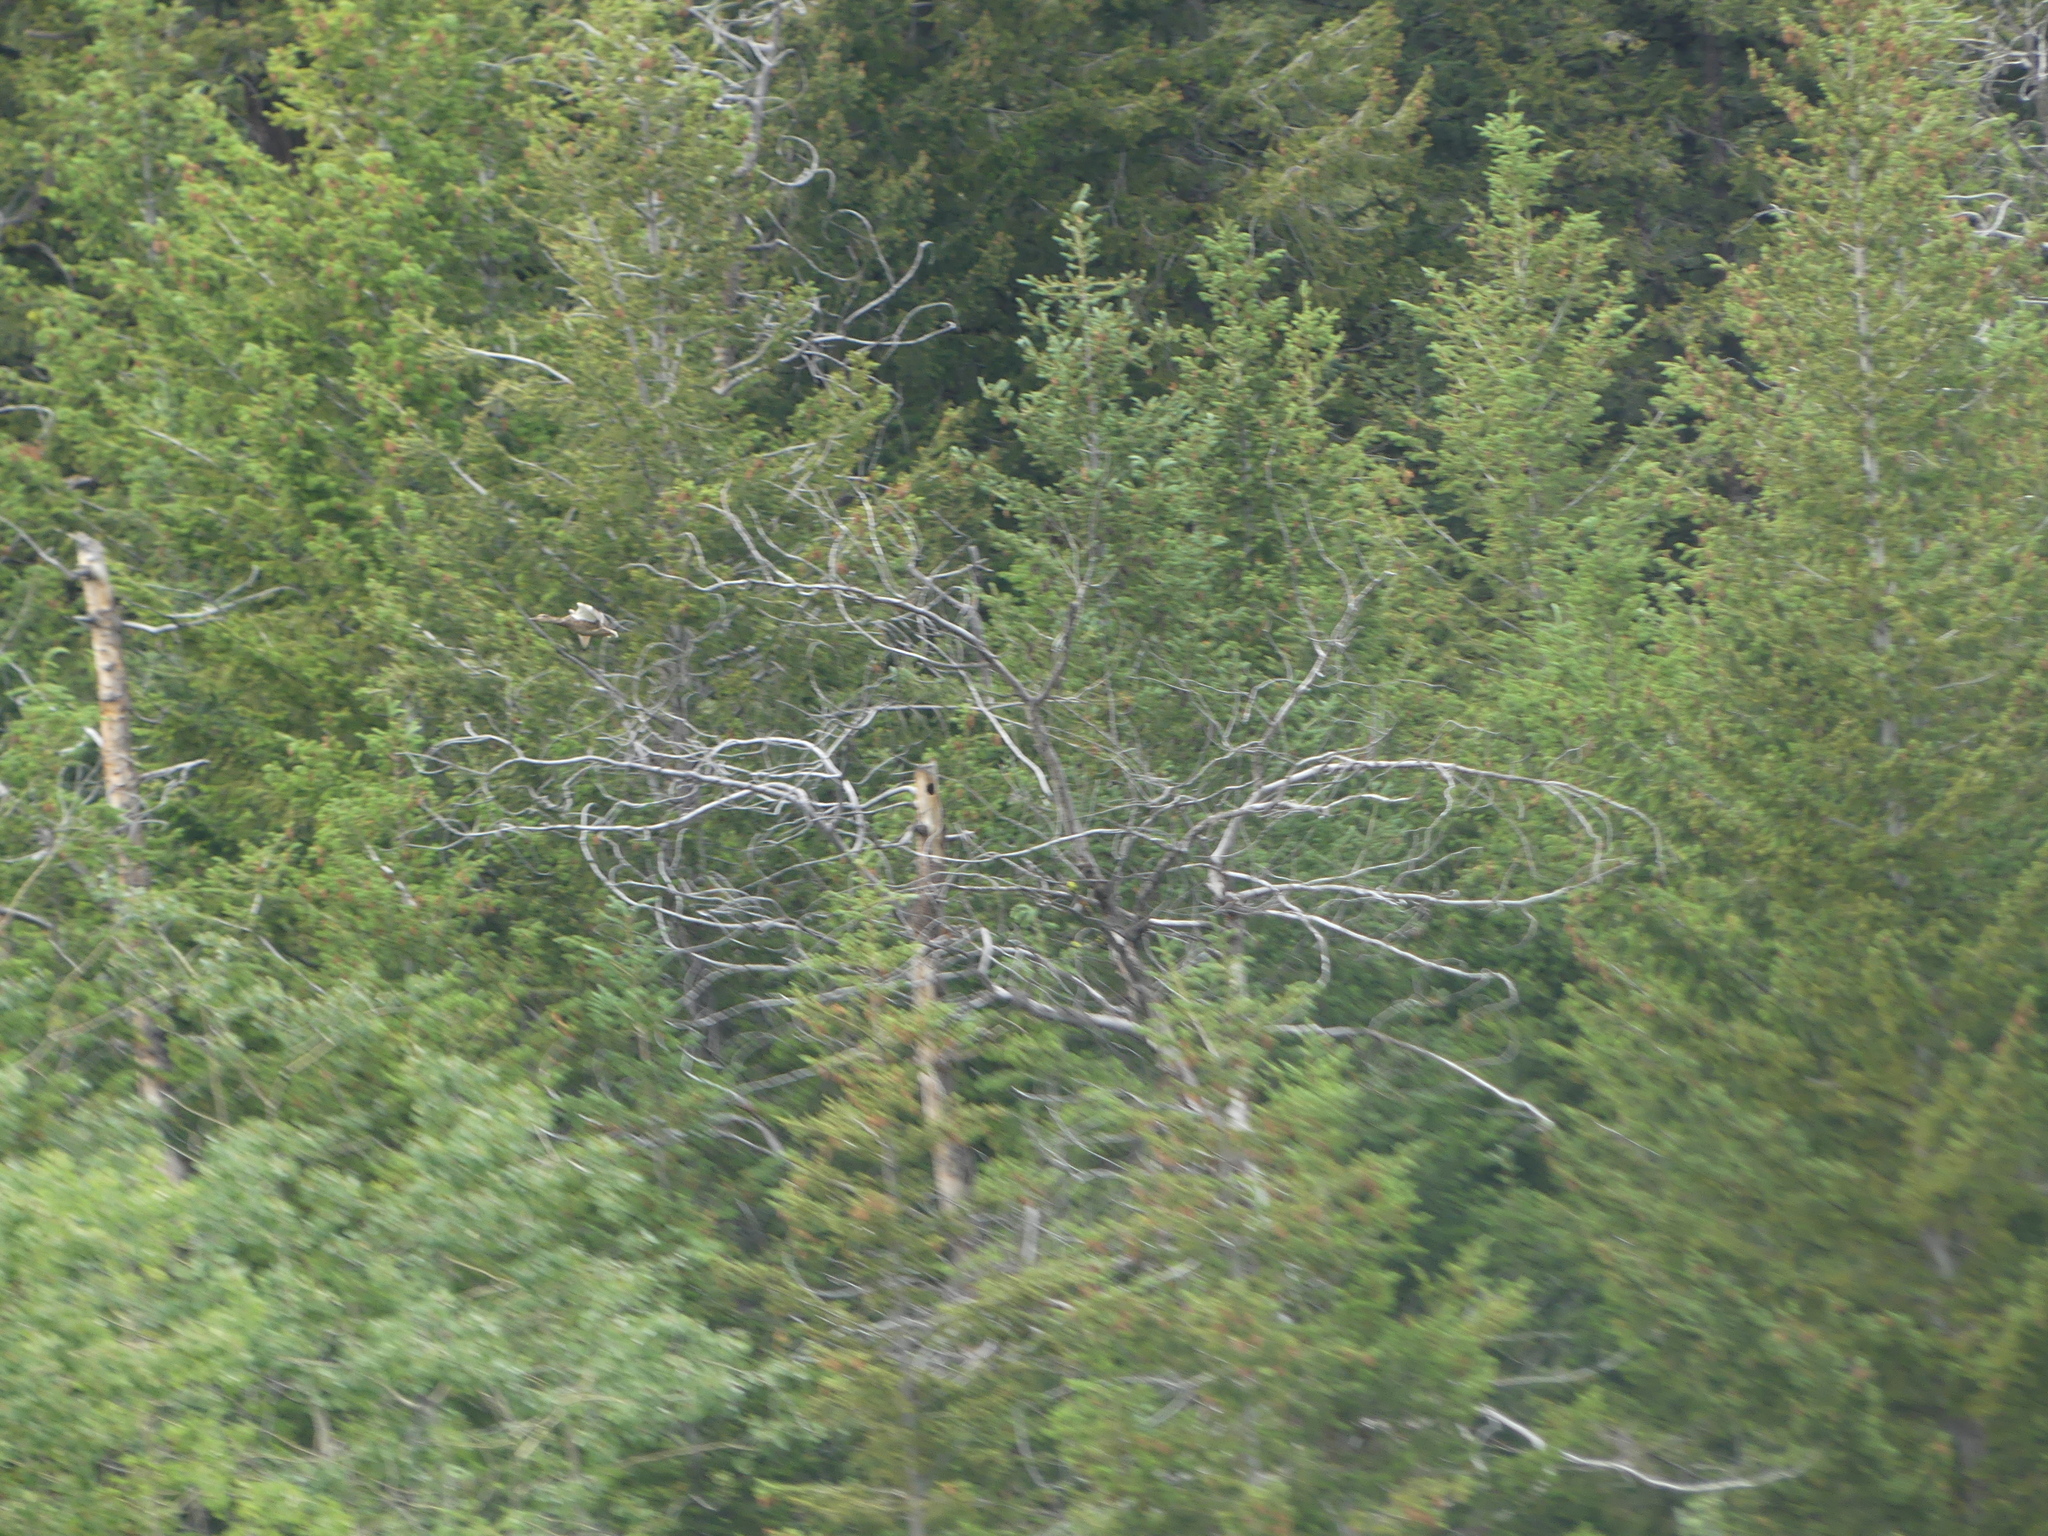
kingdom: Animalia
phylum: Chordata
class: Aves
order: Anseriformes
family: Anatidae
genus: Anas
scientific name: Anas platyrhynchos
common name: Mallard
